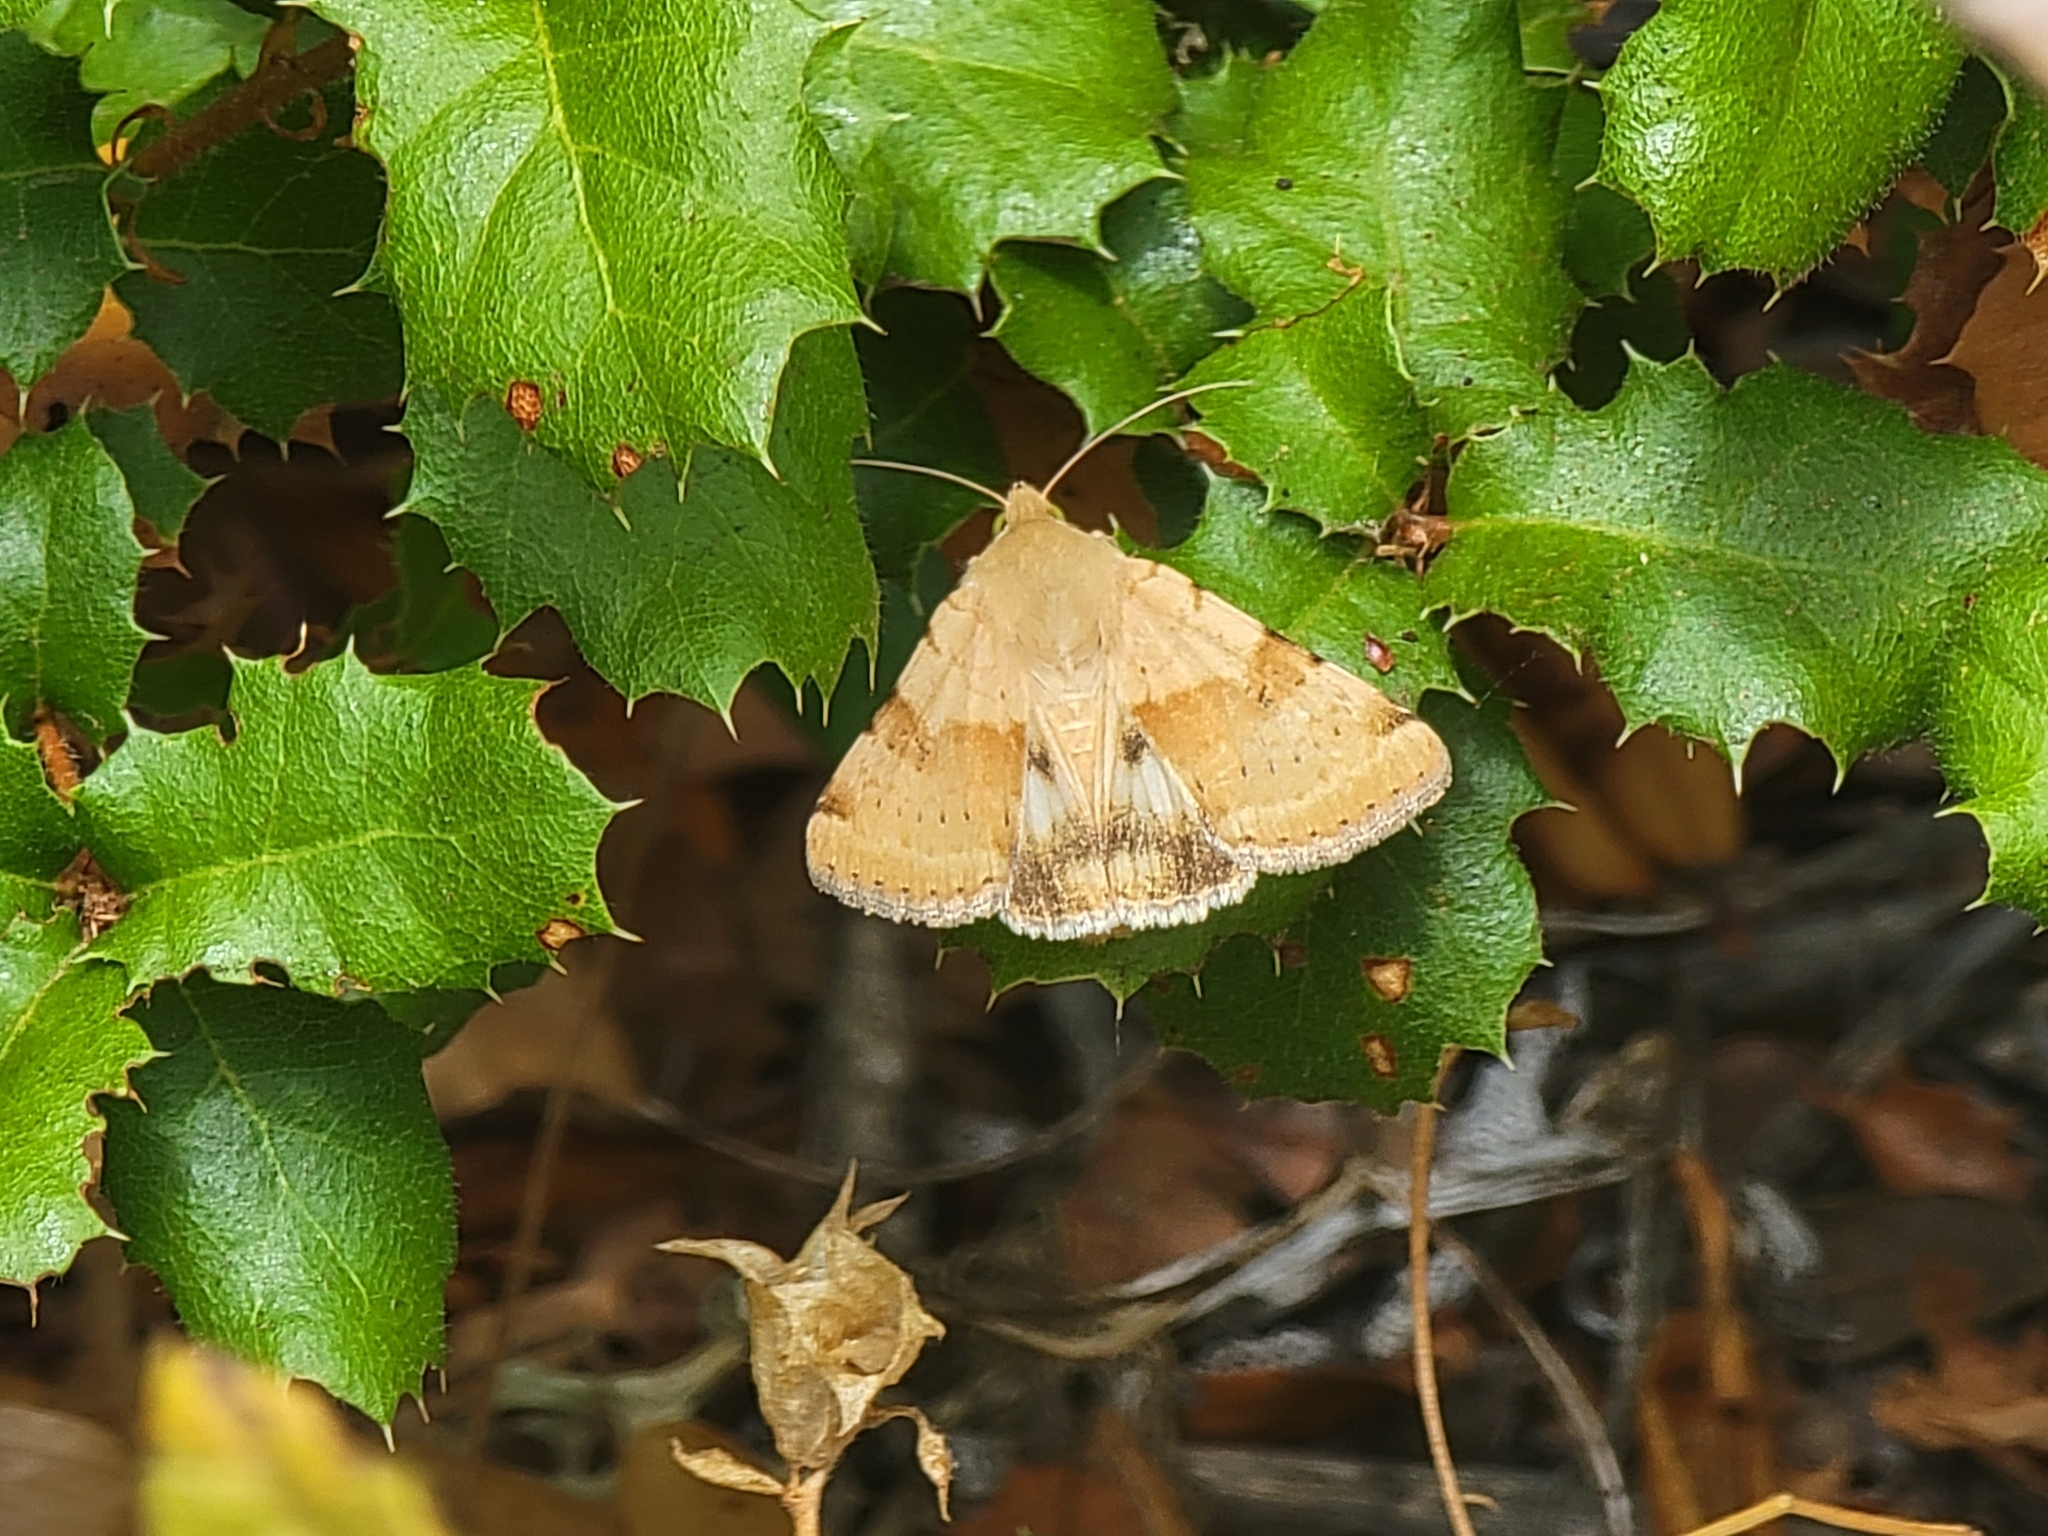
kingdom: Animalia
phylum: Arthropoda
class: Insecta
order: Lepidoptera
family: Noctuidae
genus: Heliothis
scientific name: Heliothis phloxiphaga
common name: Darker spotted straw moth
